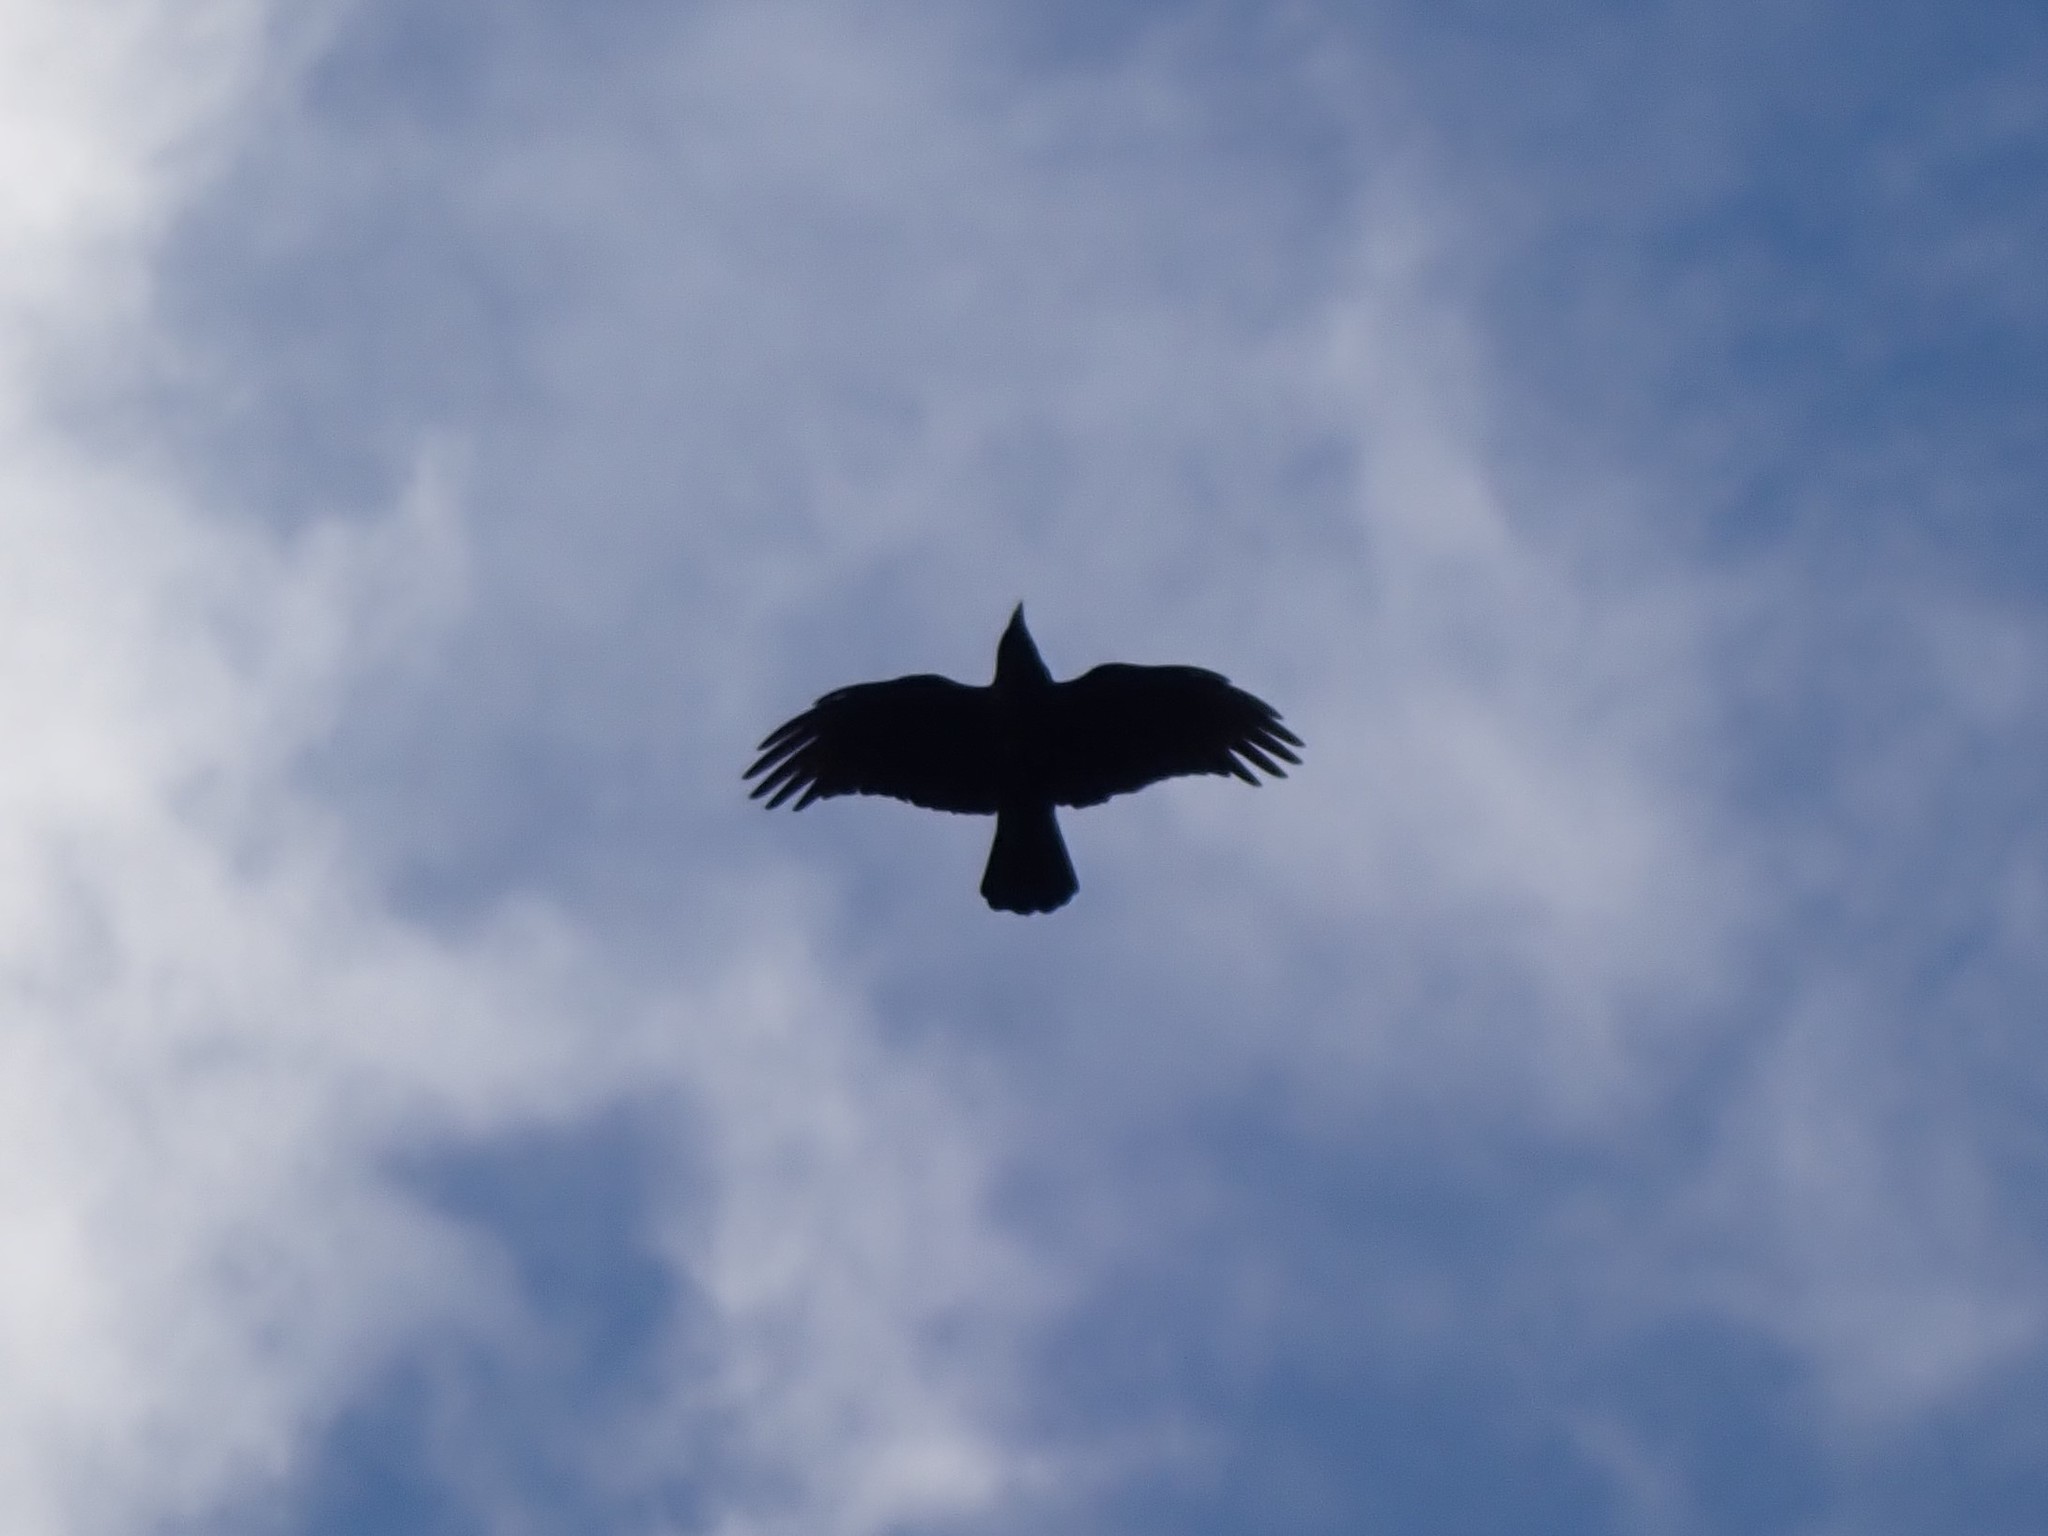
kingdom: Animalia
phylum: Chordata
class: Aves
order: Passeriformes
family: Corvidae
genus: Corvus
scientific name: Corvus brachyrhynchos
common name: American crow
